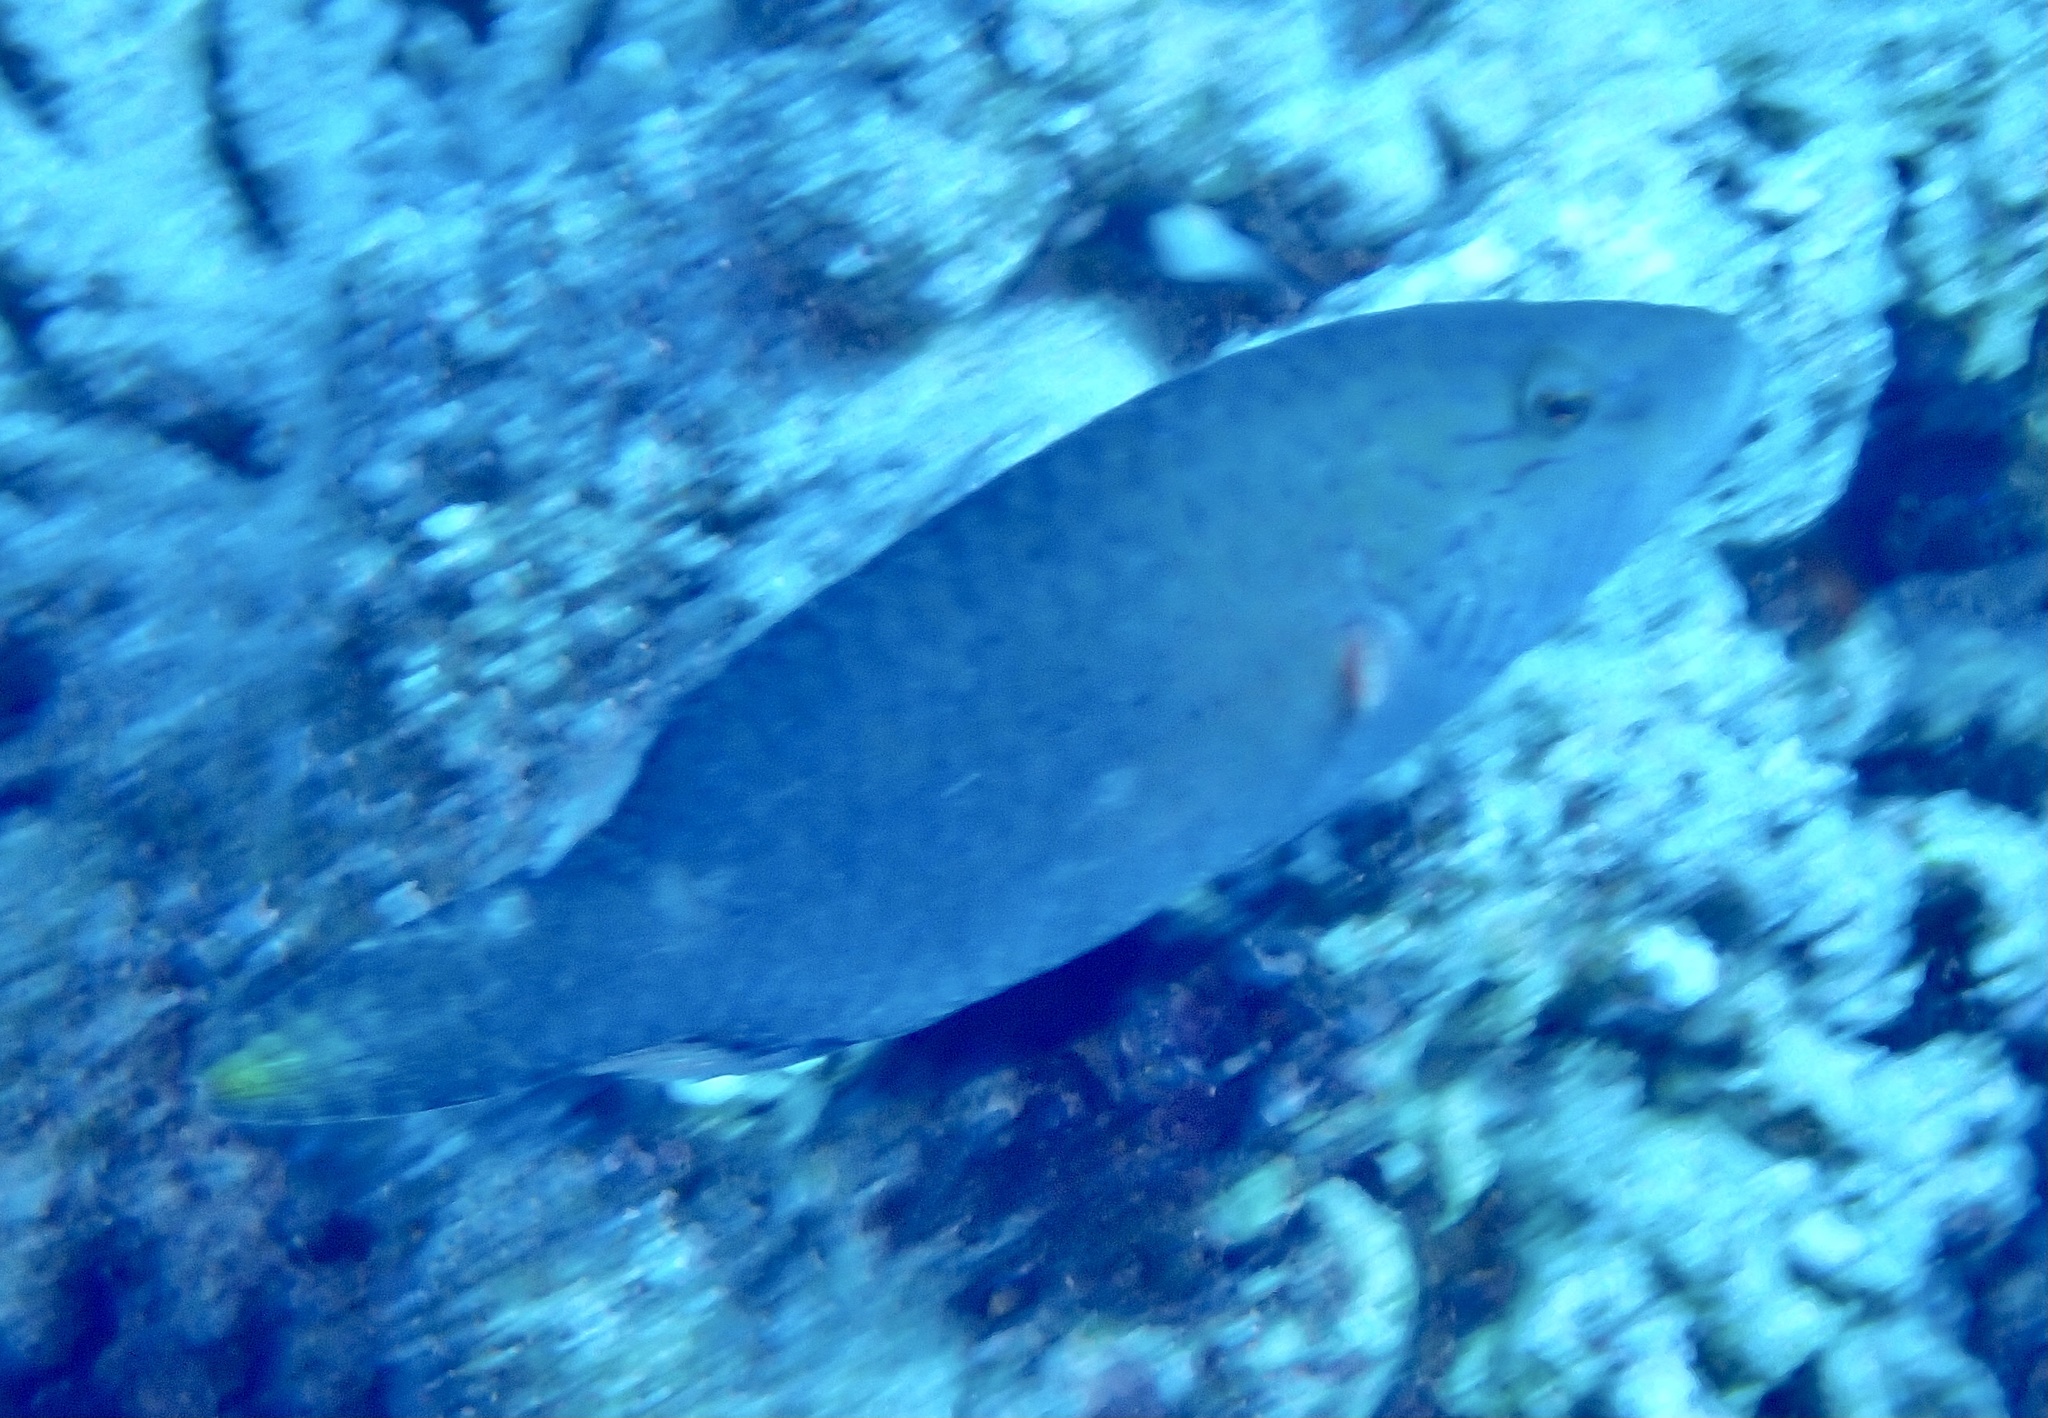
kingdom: Animalia
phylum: Chordata
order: Perciformes
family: Labridae
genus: Oxycheilinus
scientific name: Oxycheilinus digramma
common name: Bandcheek wrasse
